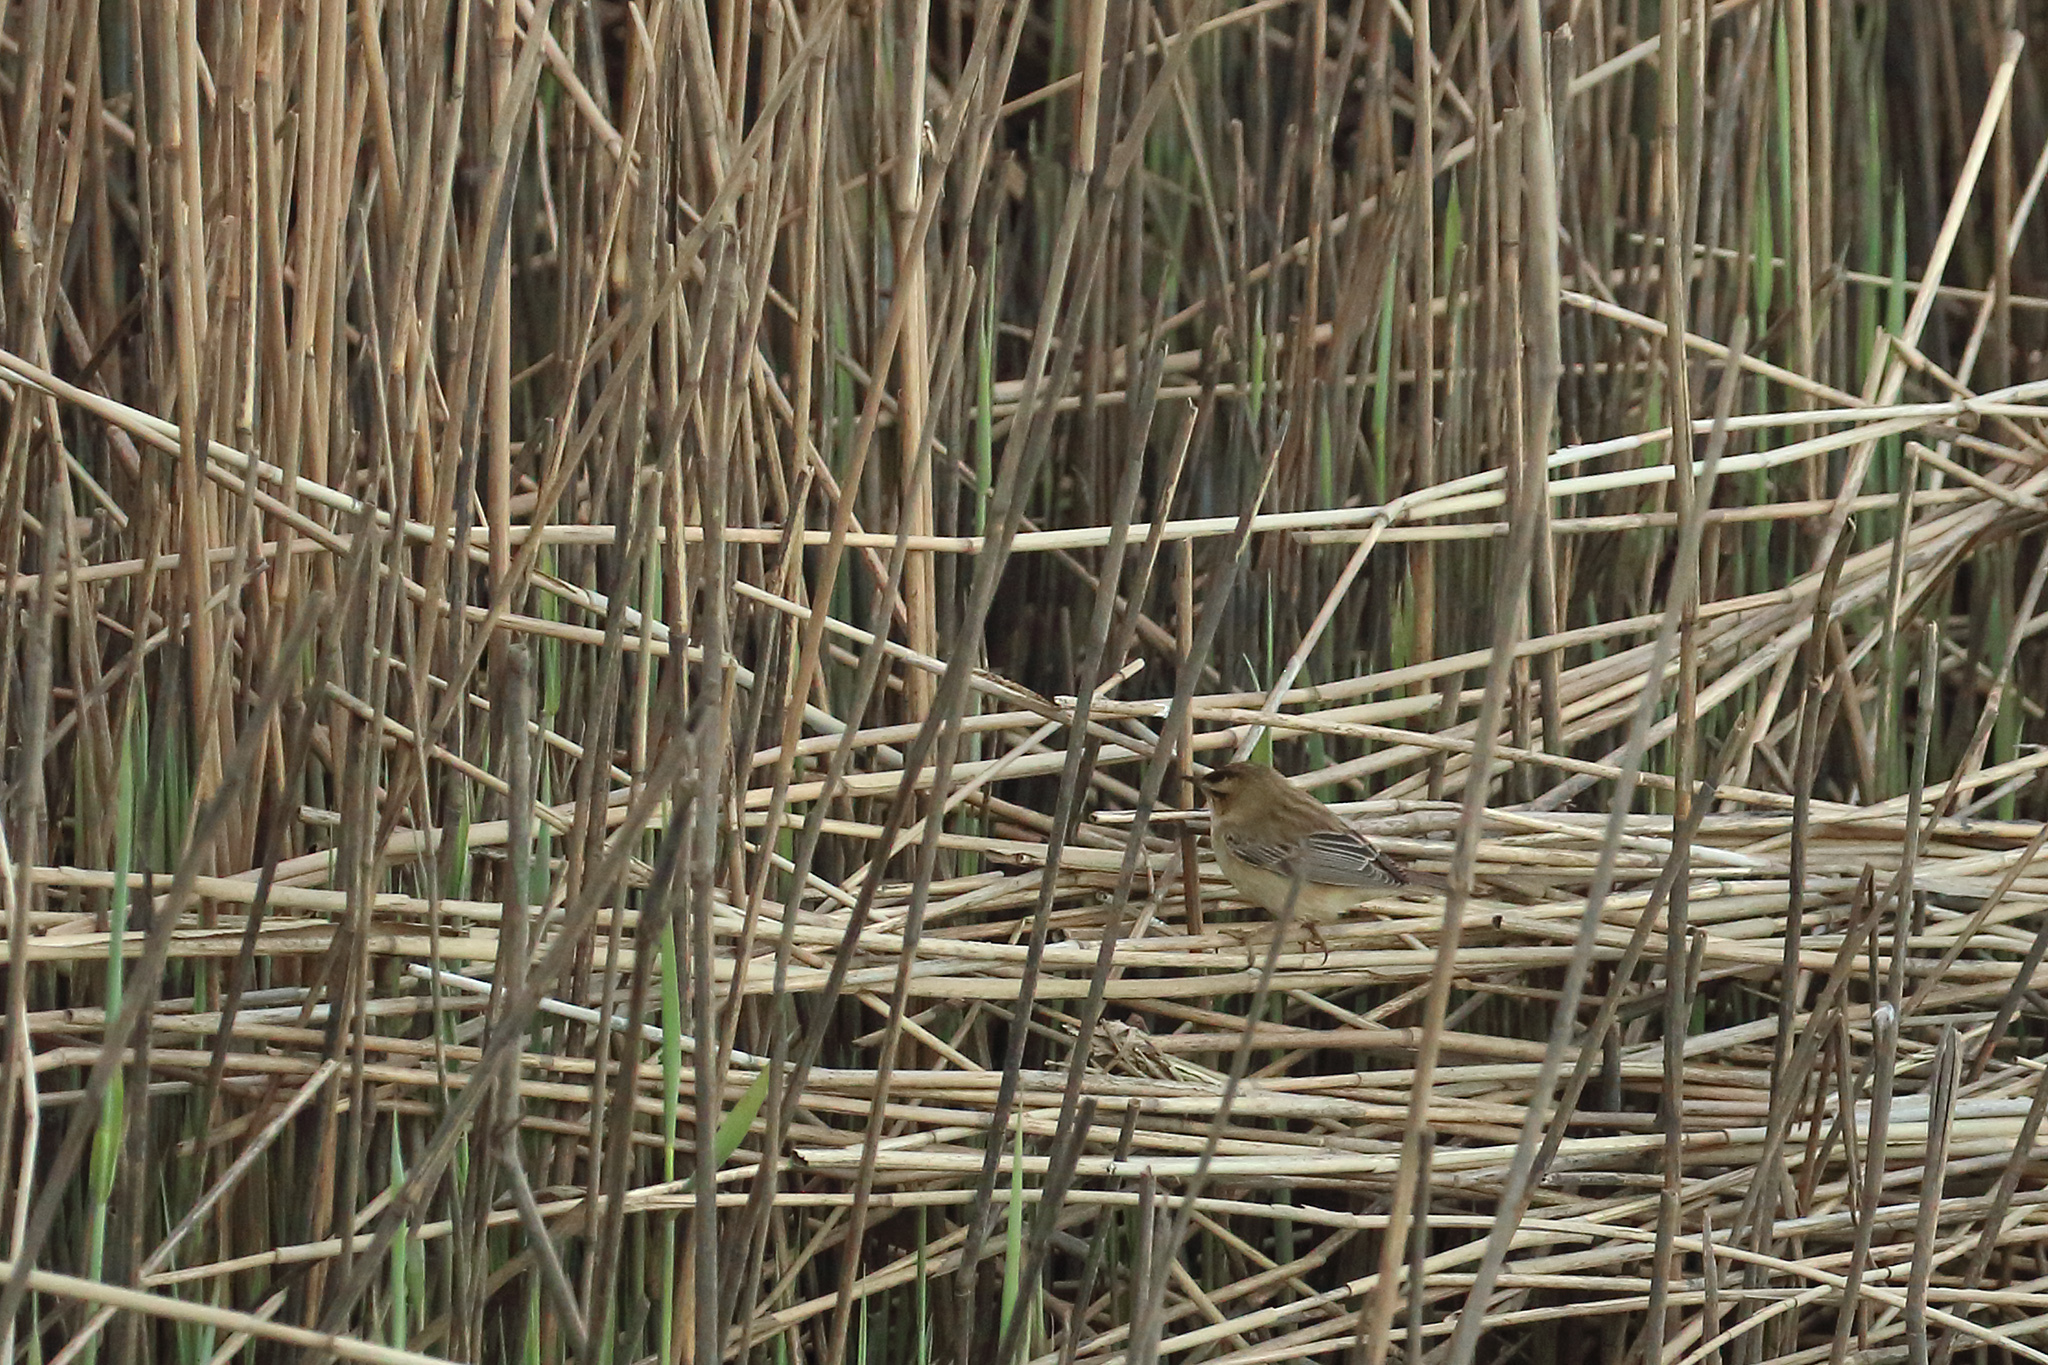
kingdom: Animalia
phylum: Chordata
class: Aves
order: Passeriformes
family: Acrocephalidae
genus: Acrocephalus
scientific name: Acrocephalus schoenobaenus
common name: Sedge warbler
